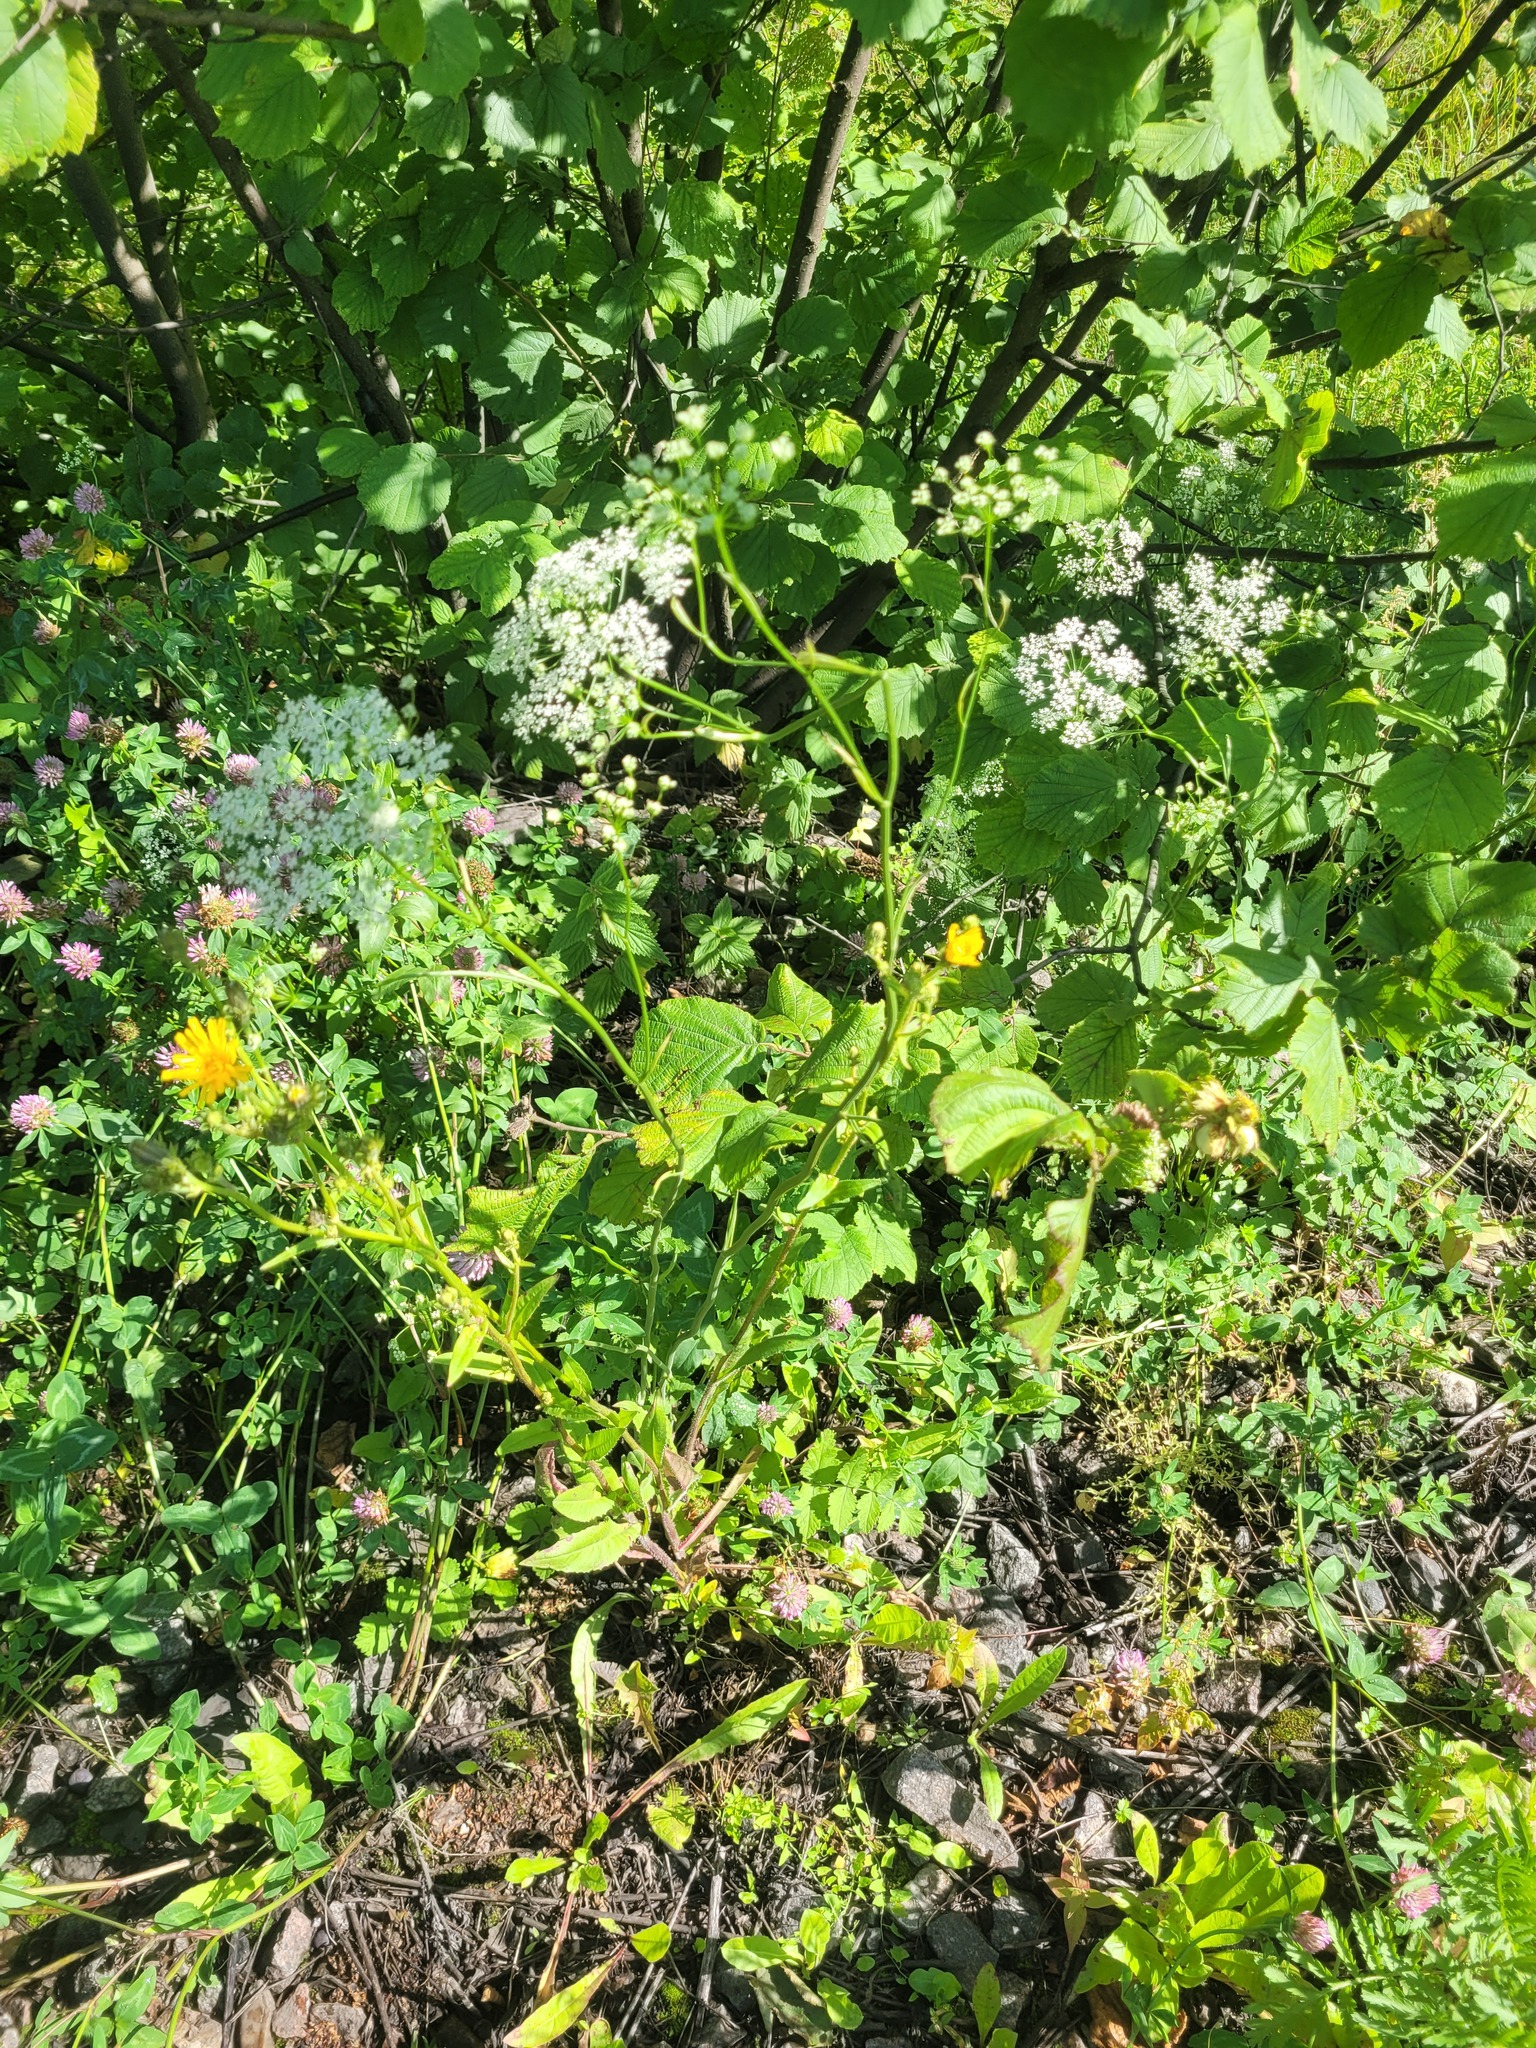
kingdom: Plantae
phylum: Tracheophyta
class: Magnoliopsida
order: Apiales
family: Apiaceae
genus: Pimpinella
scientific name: Pimpinella saxifraga
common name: Burnet-saxifrage
